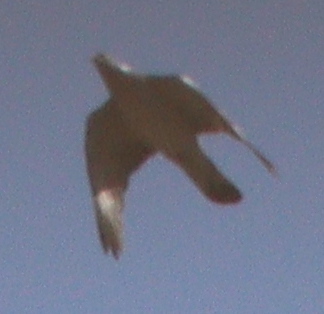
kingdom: Animalia
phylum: Chordata
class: Aves
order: Columbiformes
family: Columbidae
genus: Columba
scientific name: Columba palumbus
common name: Common wood pigeon
